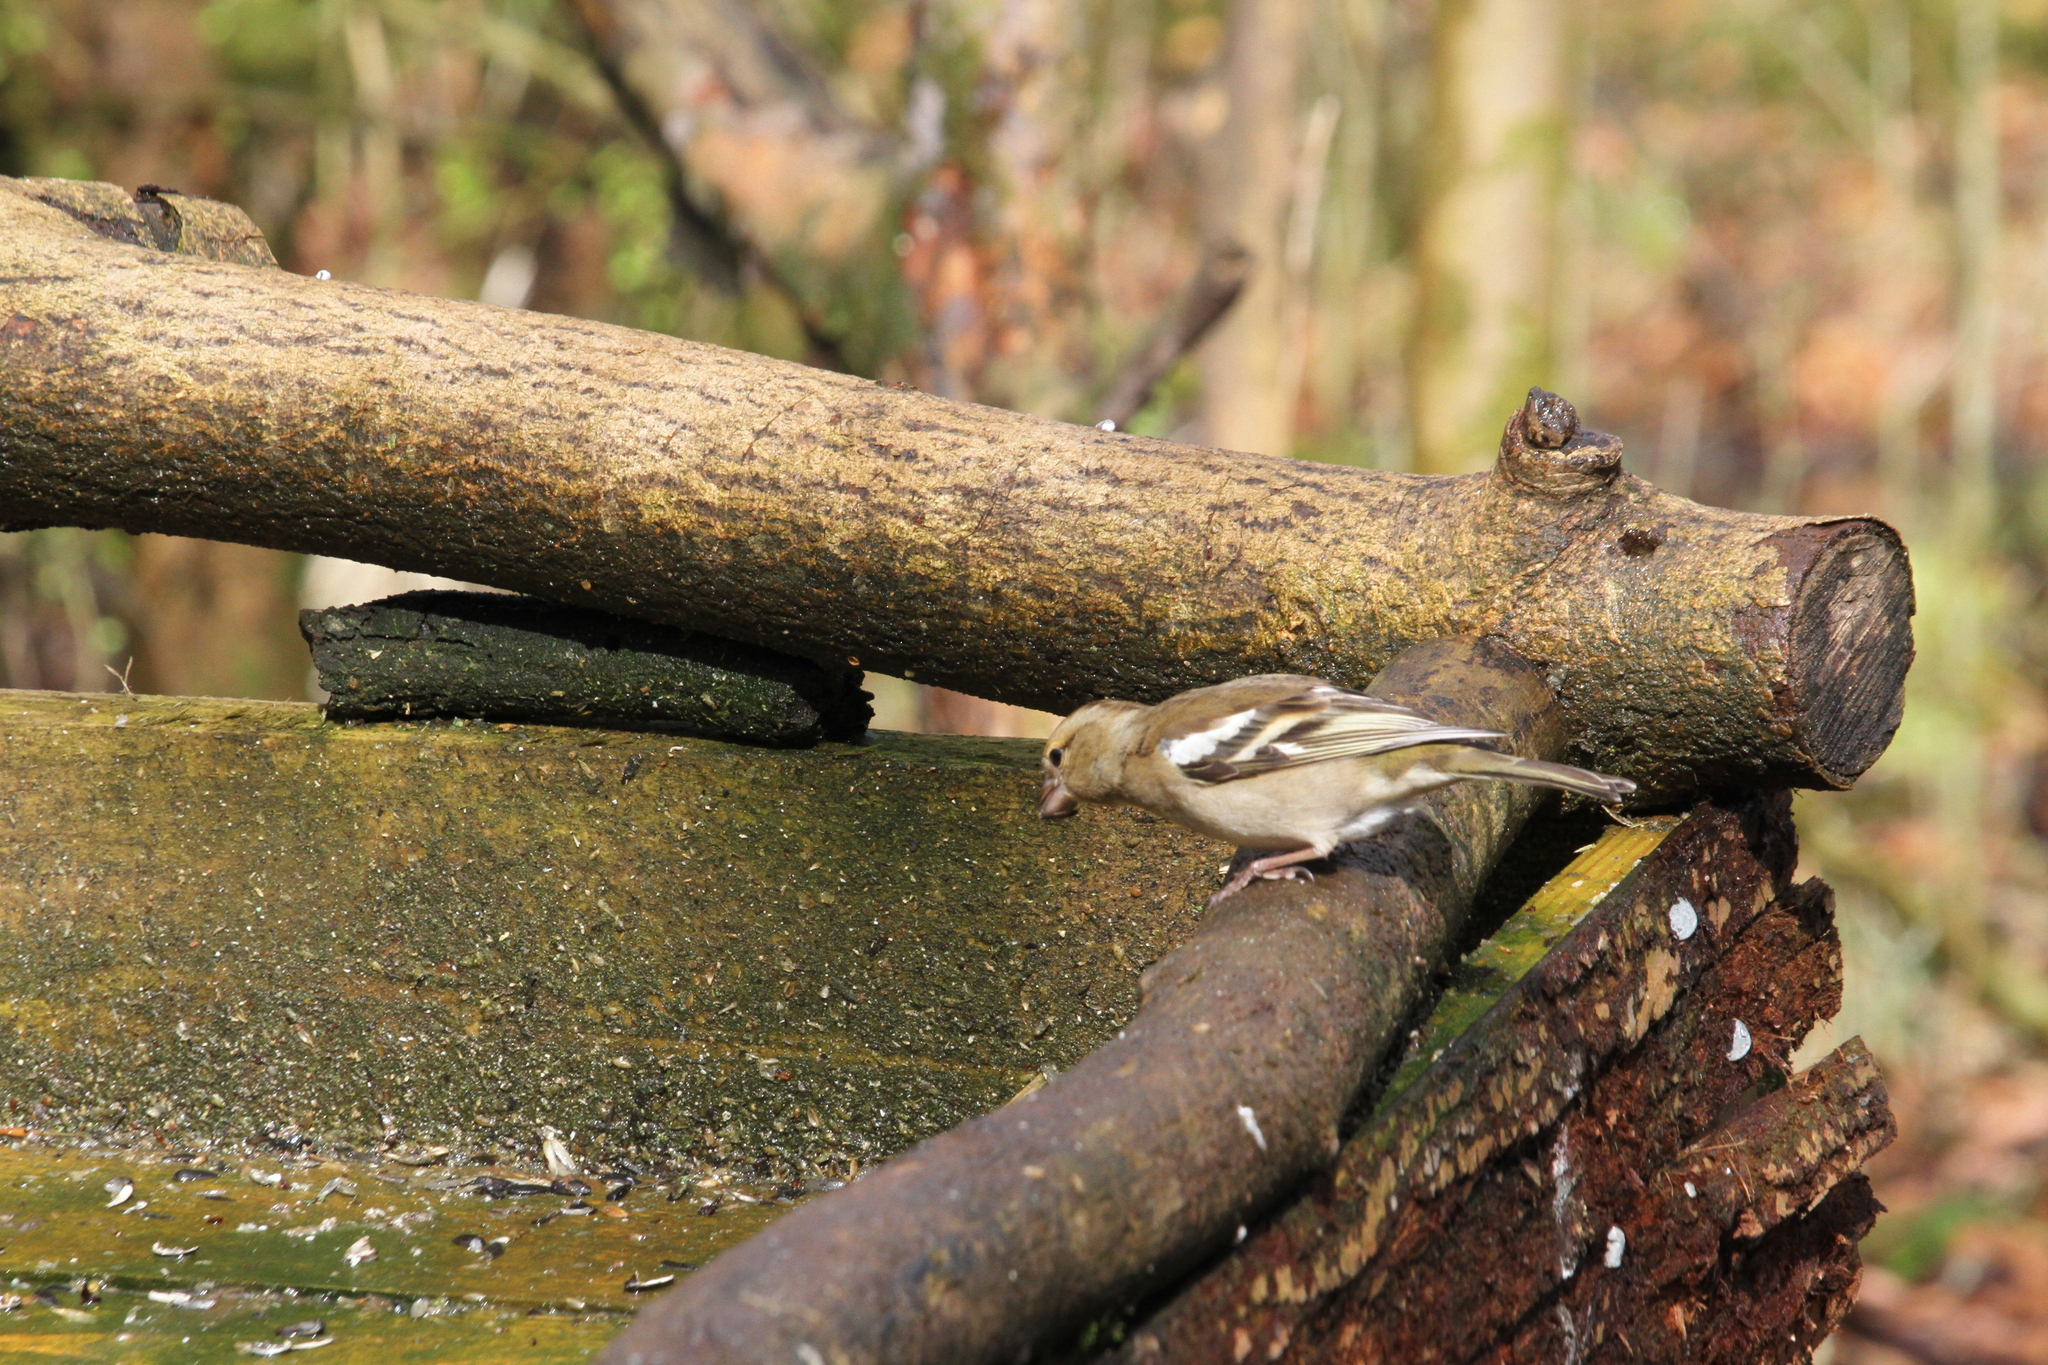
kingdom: Animalia
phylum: Chordata
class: Aves
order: Passeriformes
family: Fringillidae
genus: Fringilla
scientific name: Fringilla coelebs
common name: Common chaffinch
